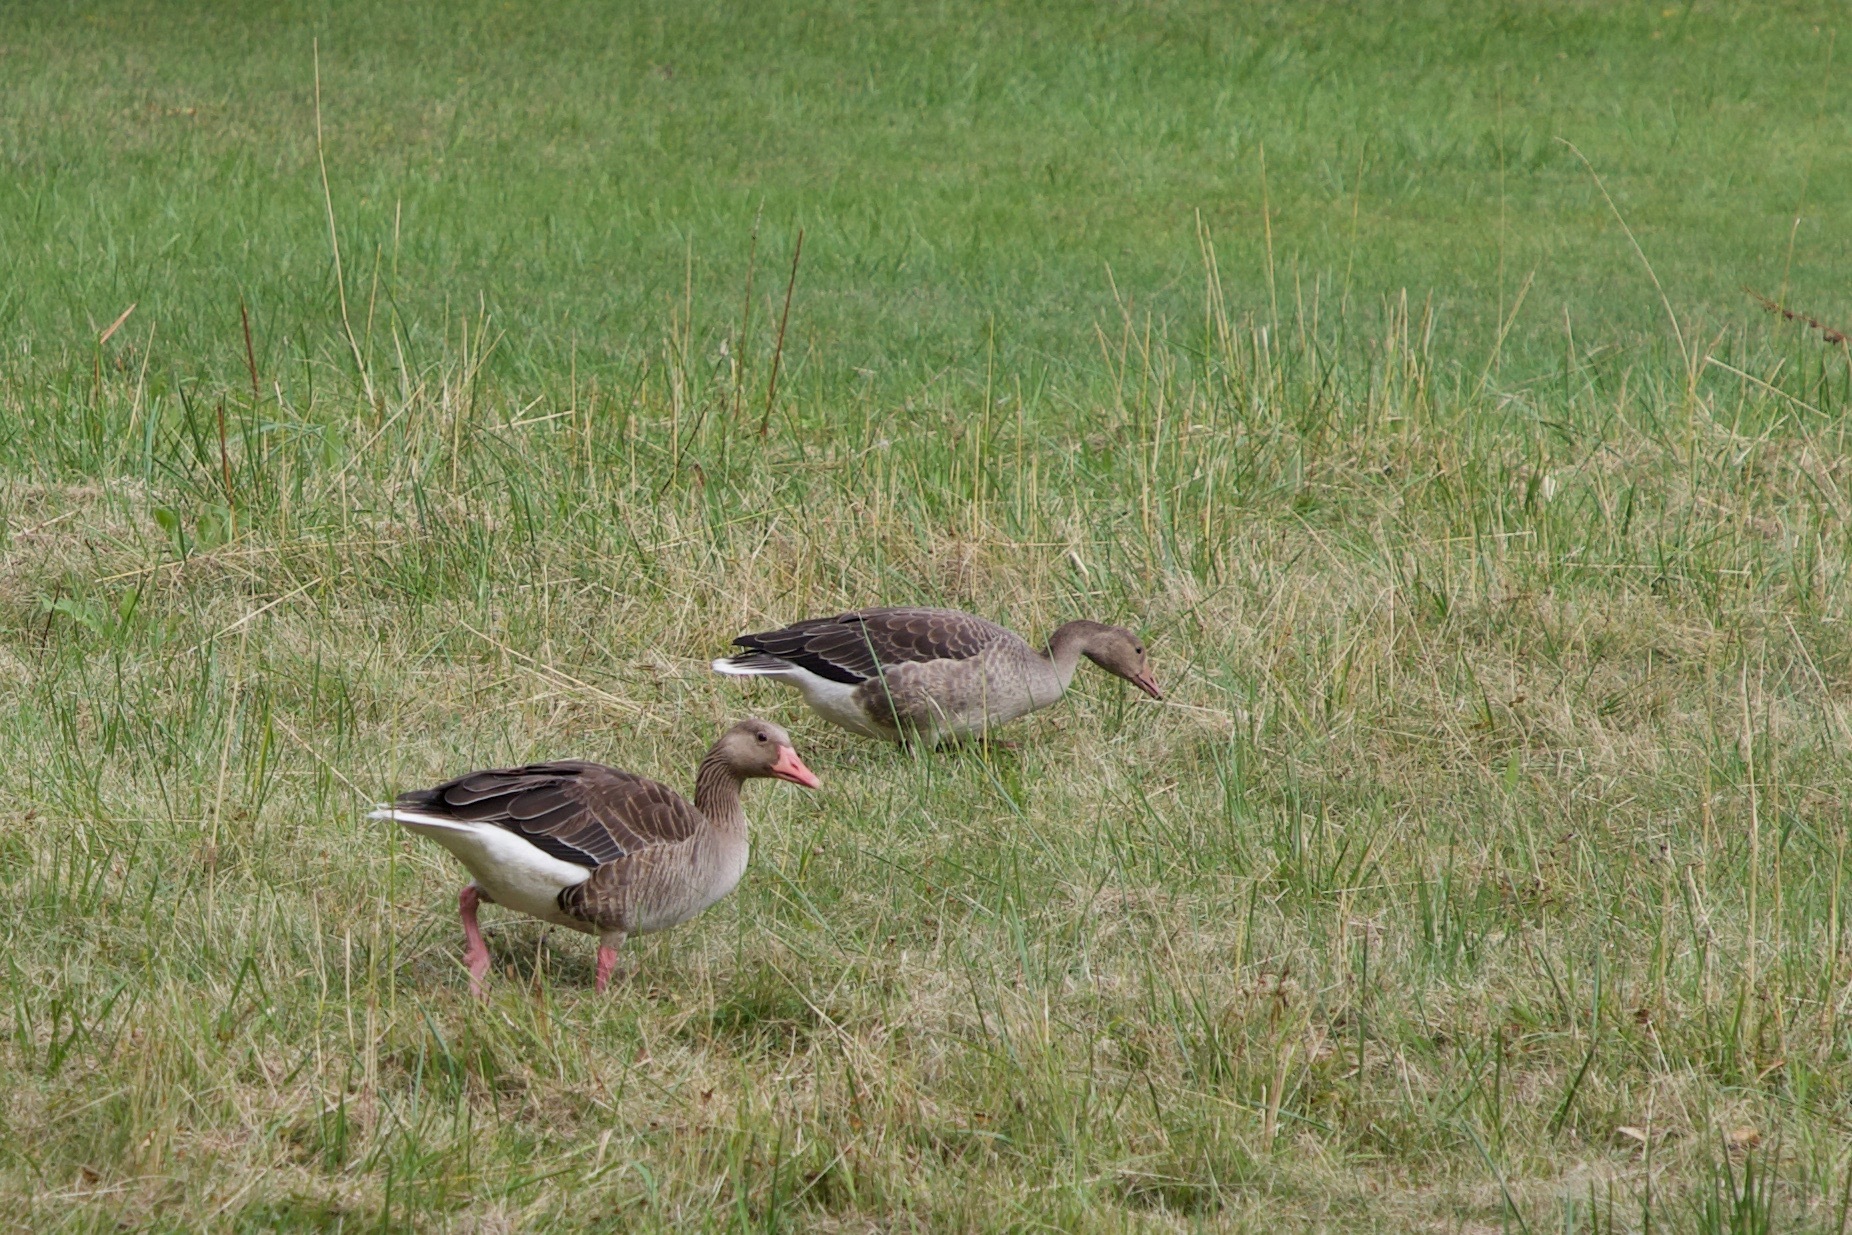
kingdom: Animalia
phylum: Chordata
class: Aves
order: Anseriformes
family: Anatidae
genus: Anser
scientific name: Anser anser
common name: Greylag goose
